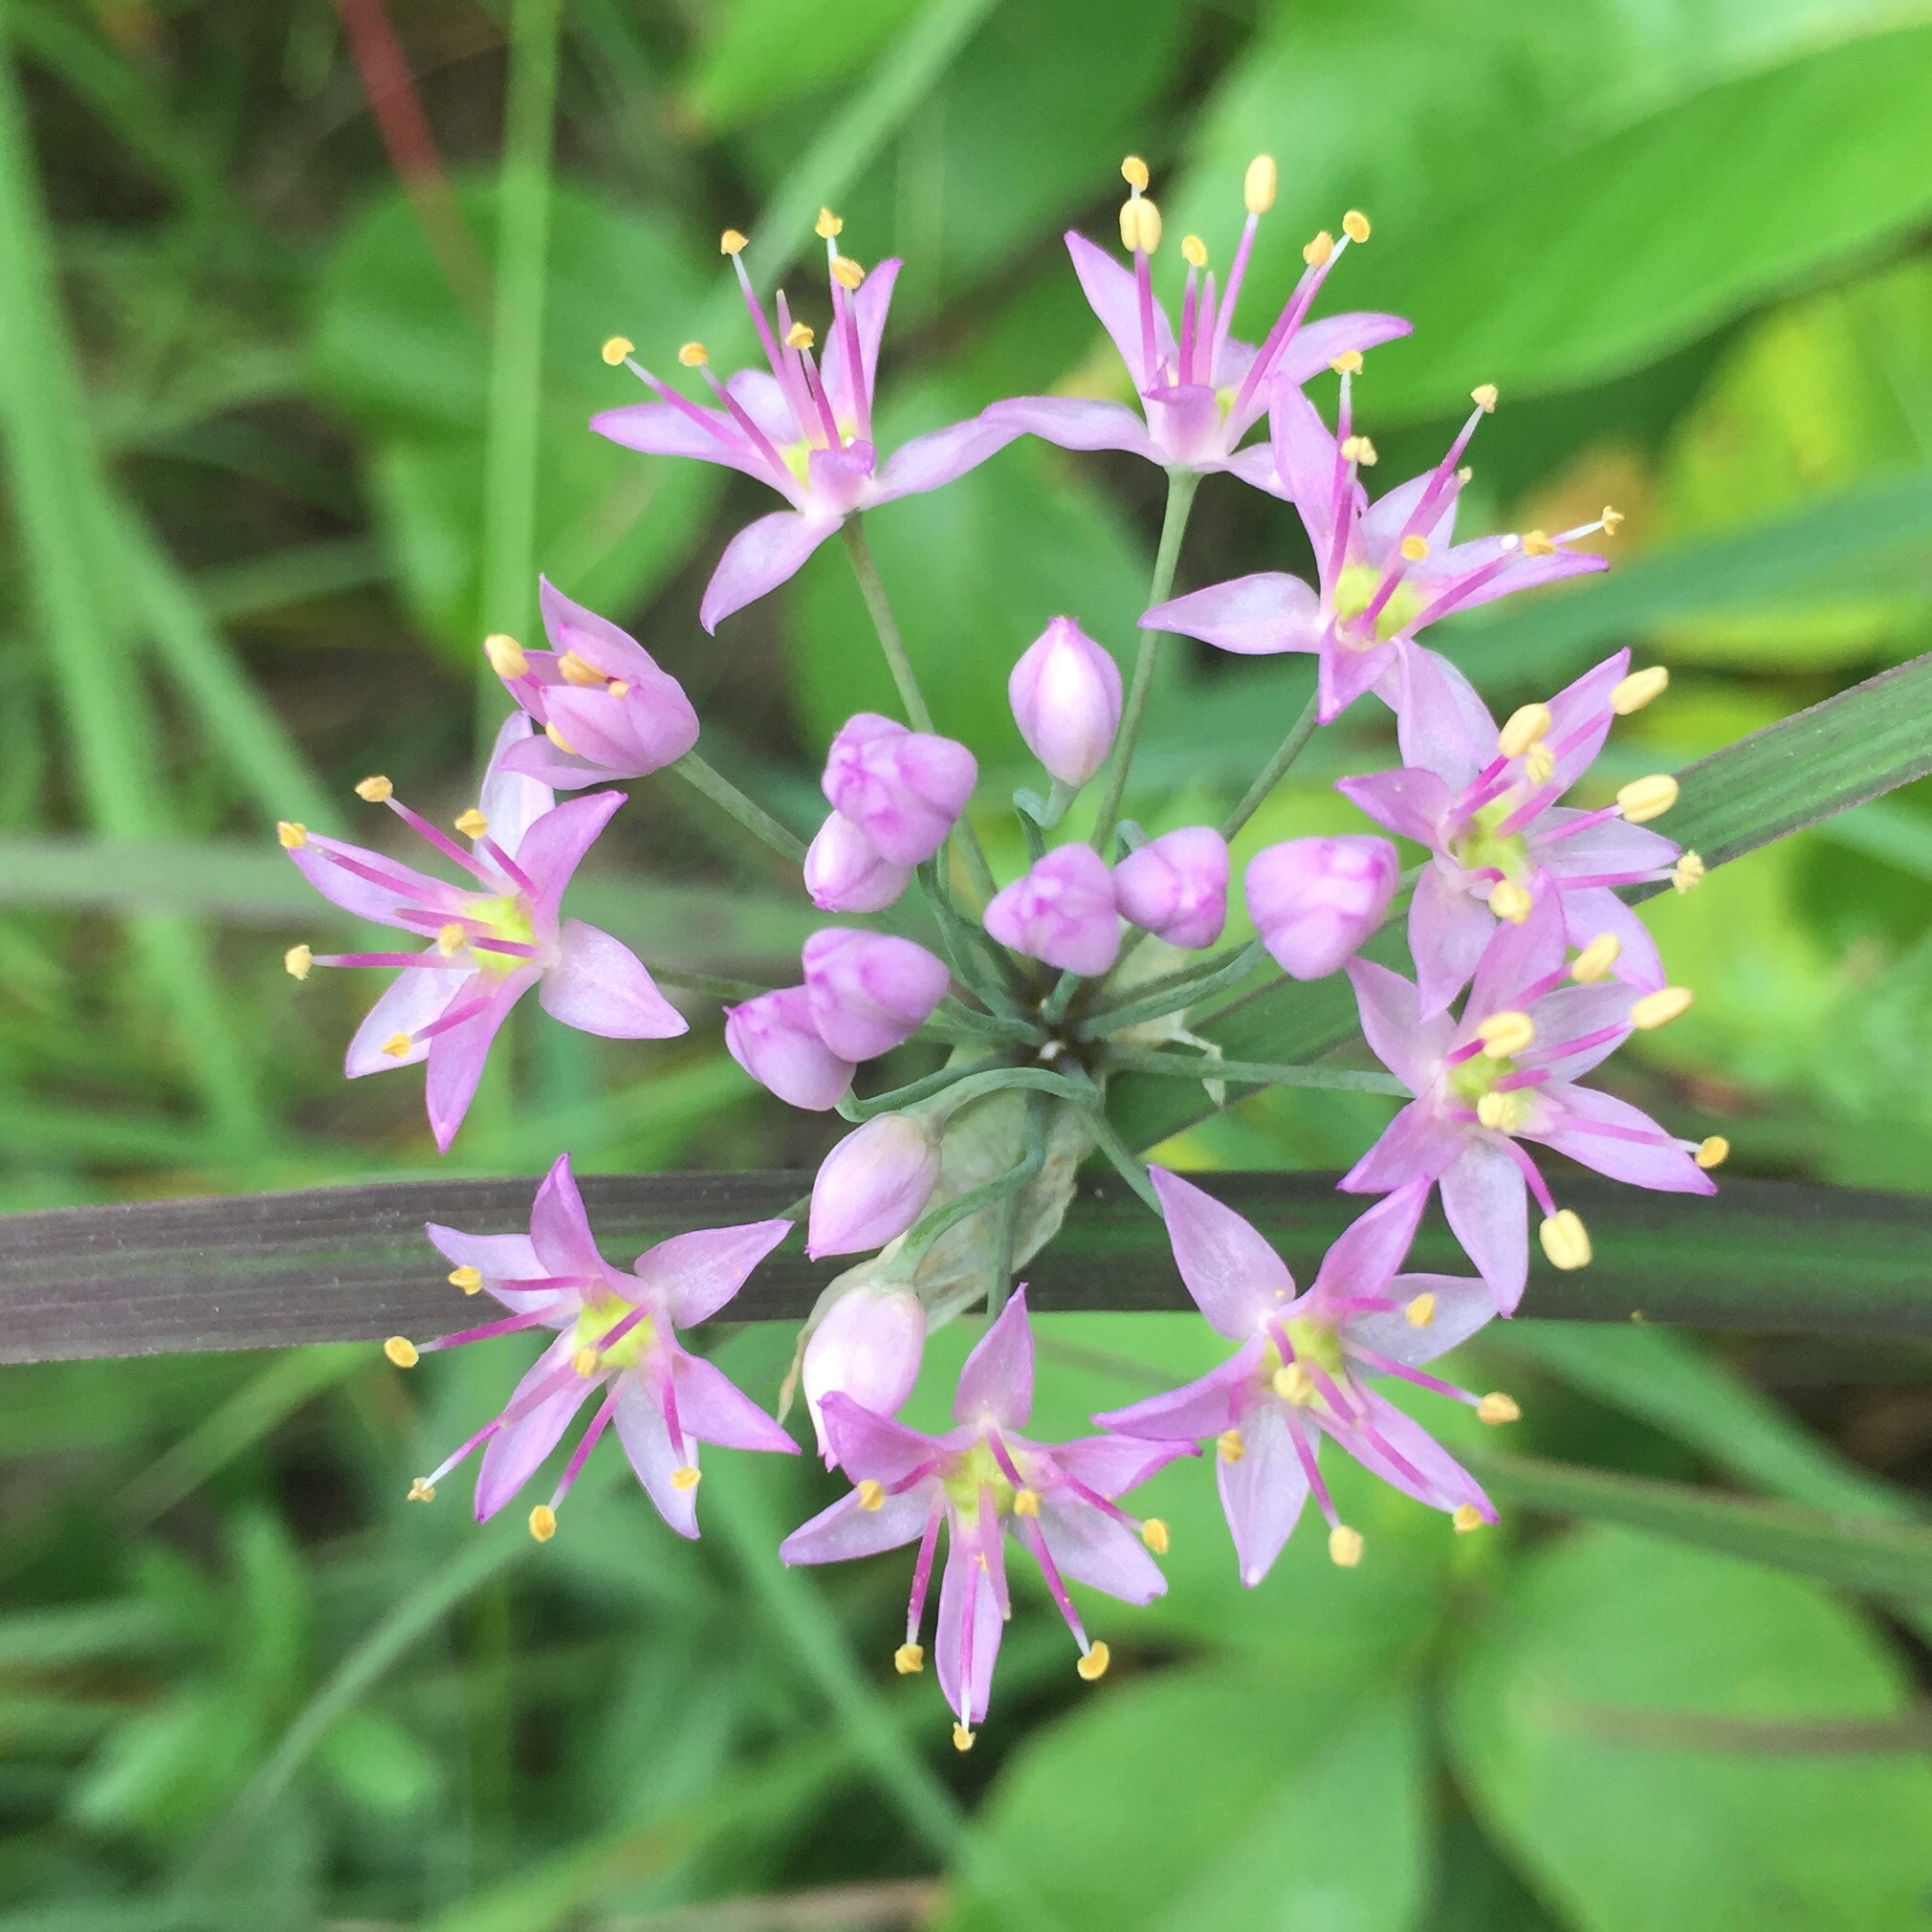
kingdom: Plantae
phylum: Tracheophyta
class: Liliopsida
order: Asparagales
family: Amaryllidaceae
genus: Allium
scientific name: Allium stellatum
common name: Autumn onion
